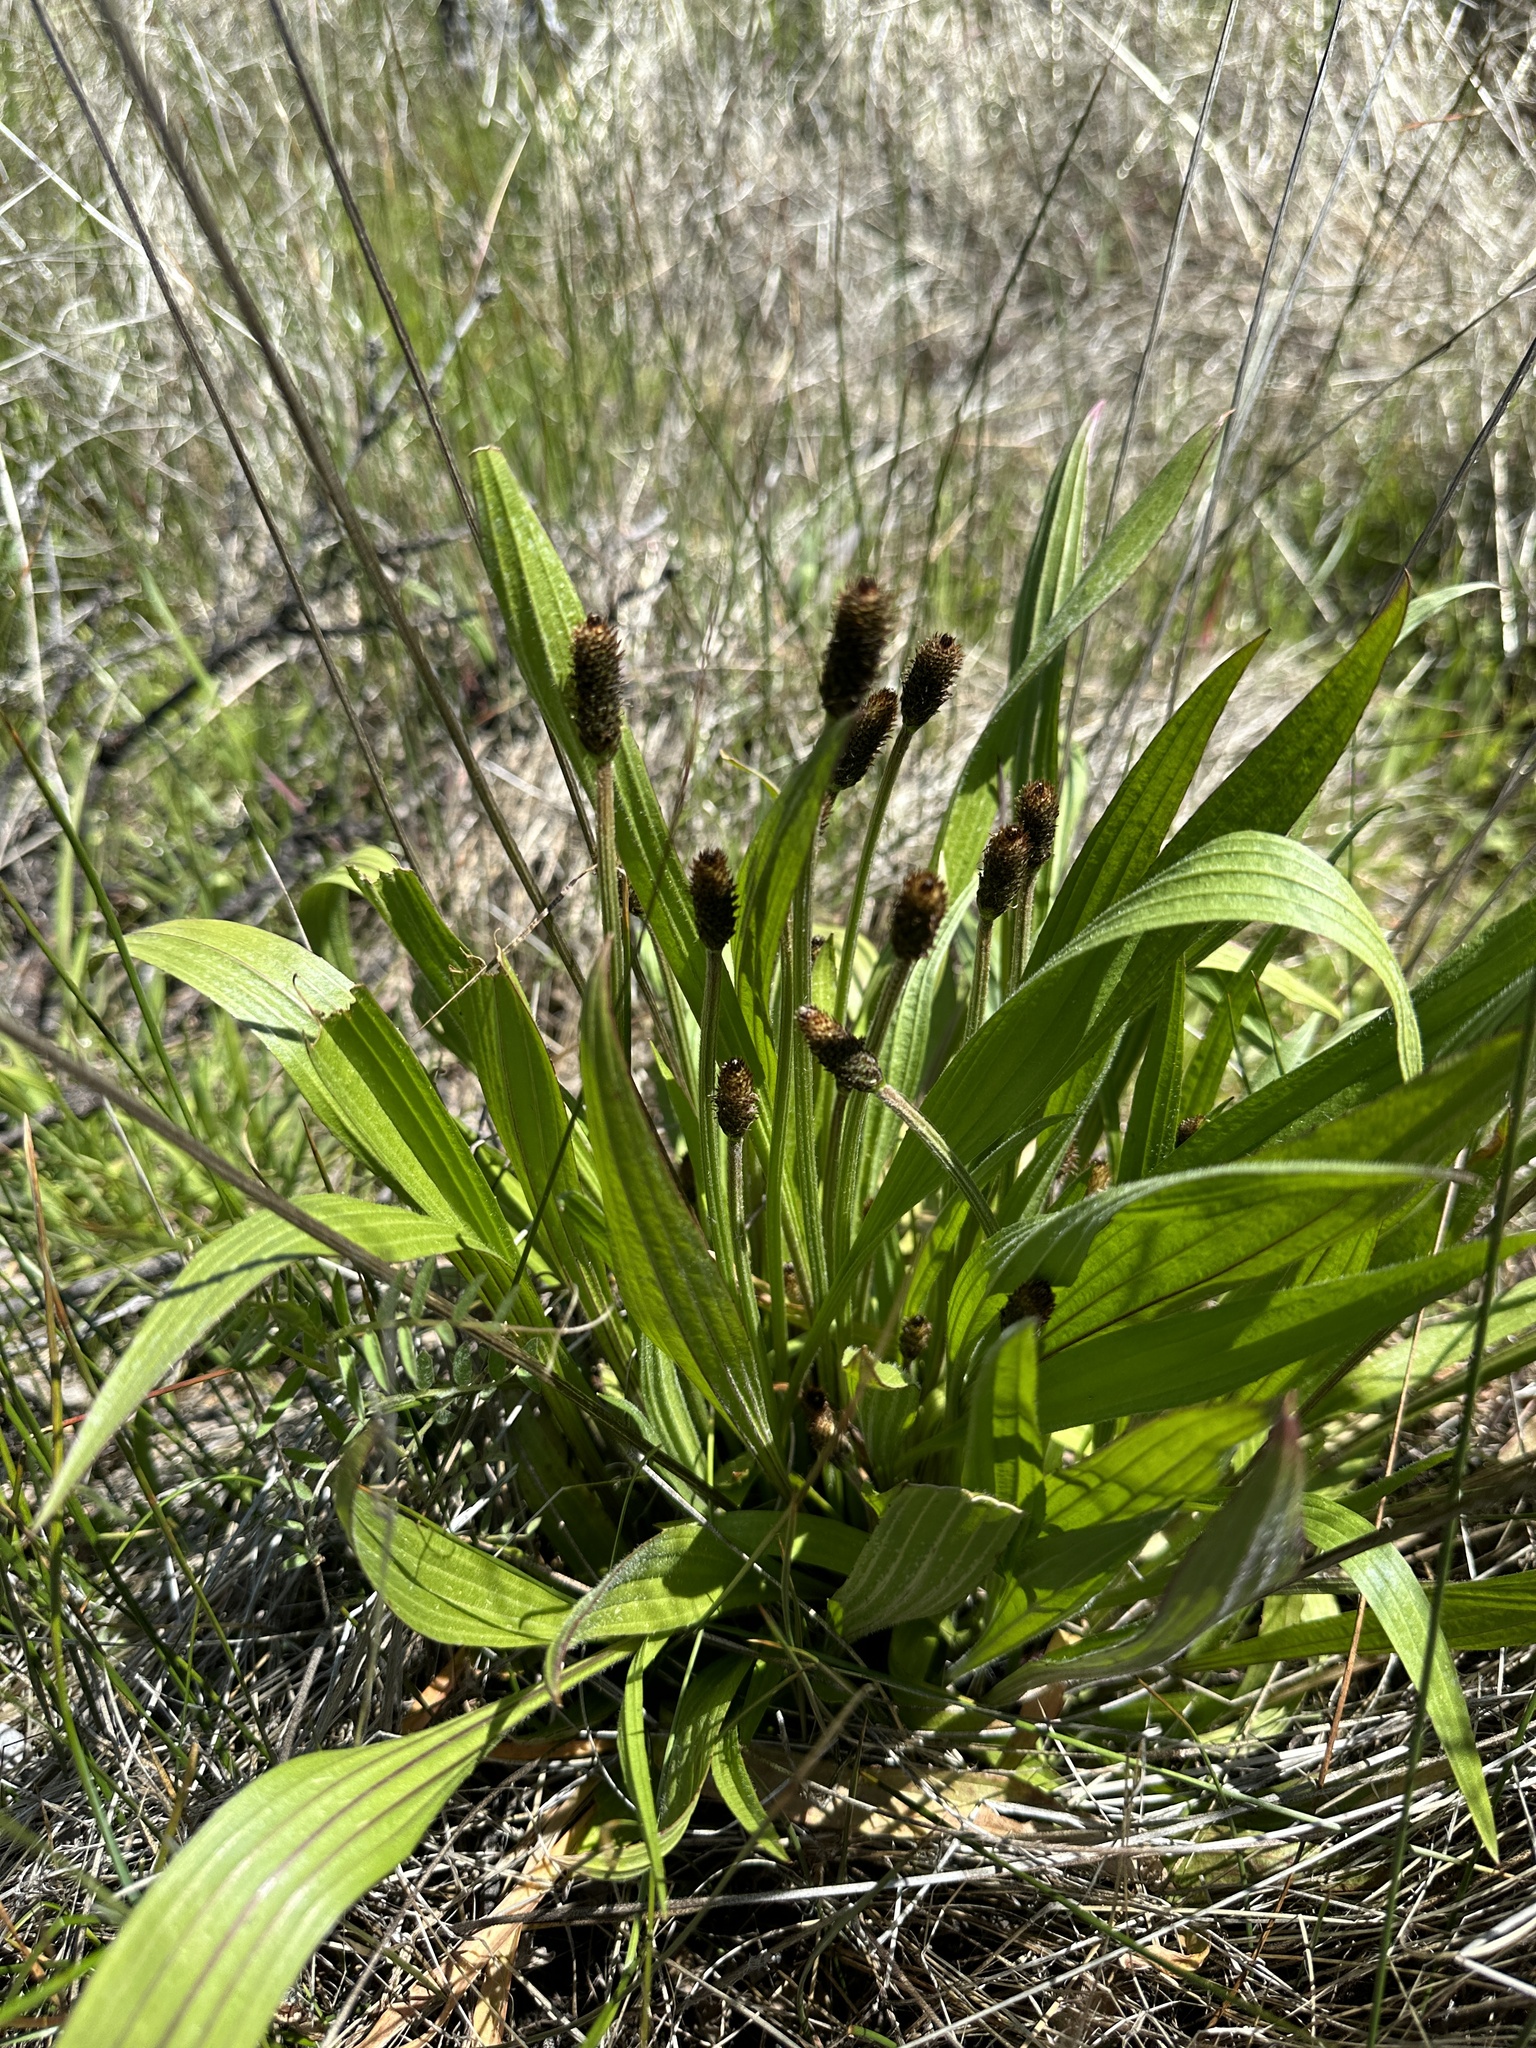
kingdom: Plantae
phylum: Tracheophyta
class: Magnoliopsida
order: Lamiales
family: Plantaginaceae
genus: Plantago
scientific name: Plantago lanceolata
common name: Ribwort plantain
